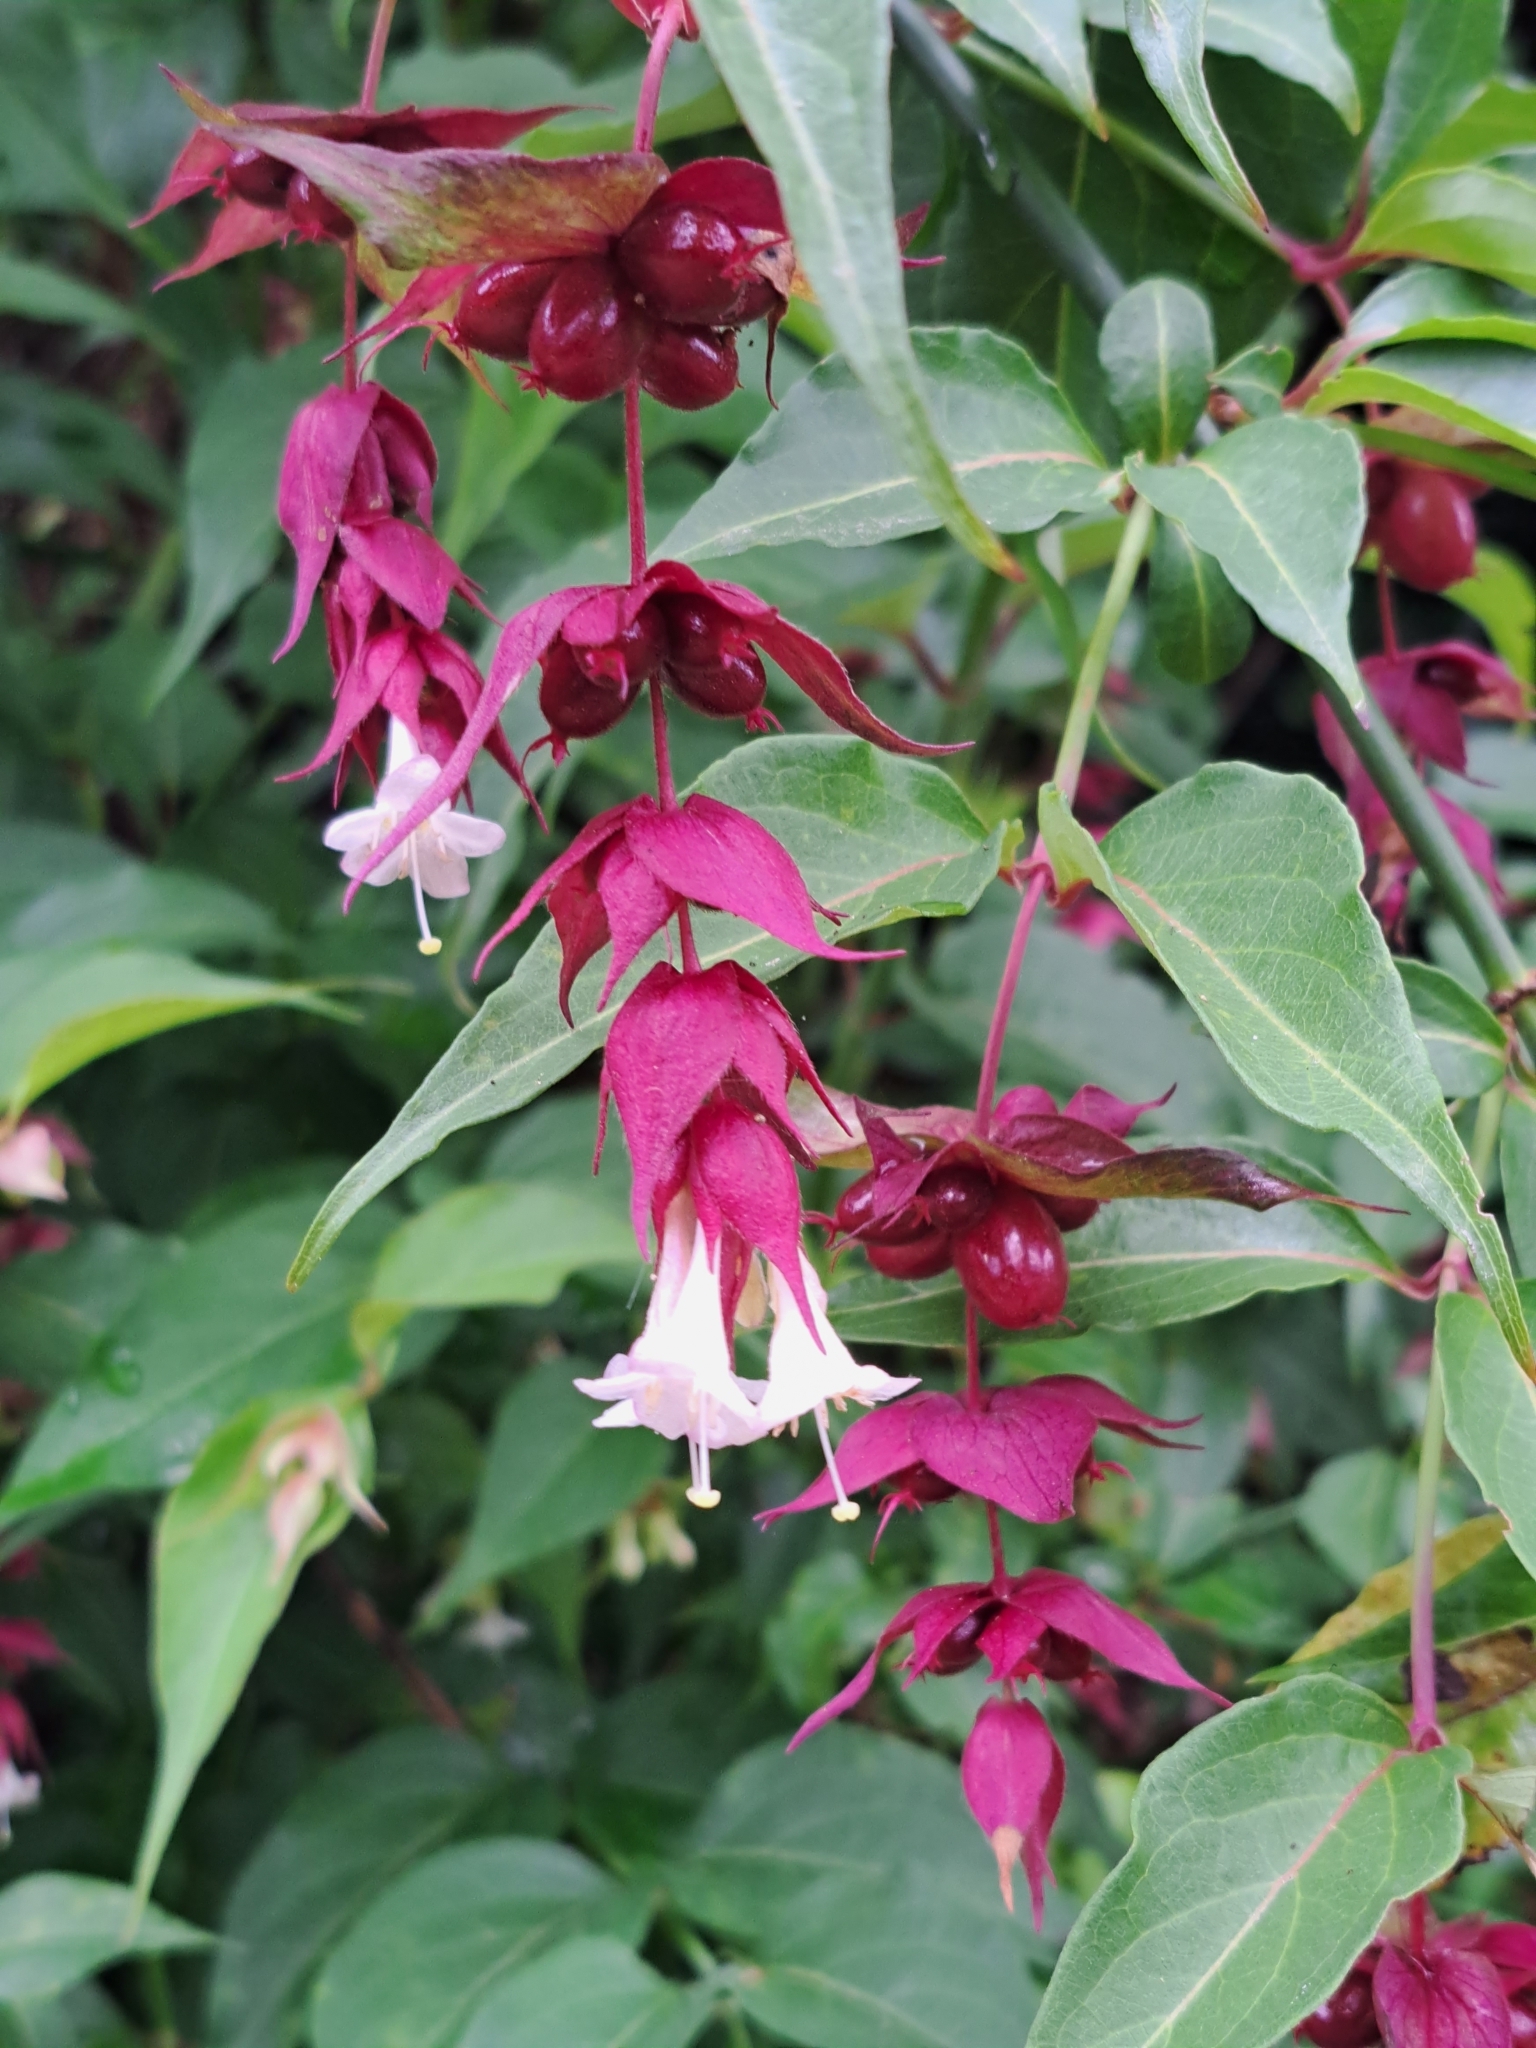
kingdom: Plantae
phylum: Tracheophyta
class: Magnoliopsida
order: Dipsacales
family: Caprifoliaceae
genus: Leycesteria
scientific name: Leycesteria formosa
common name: Himalayan honeysuckle
